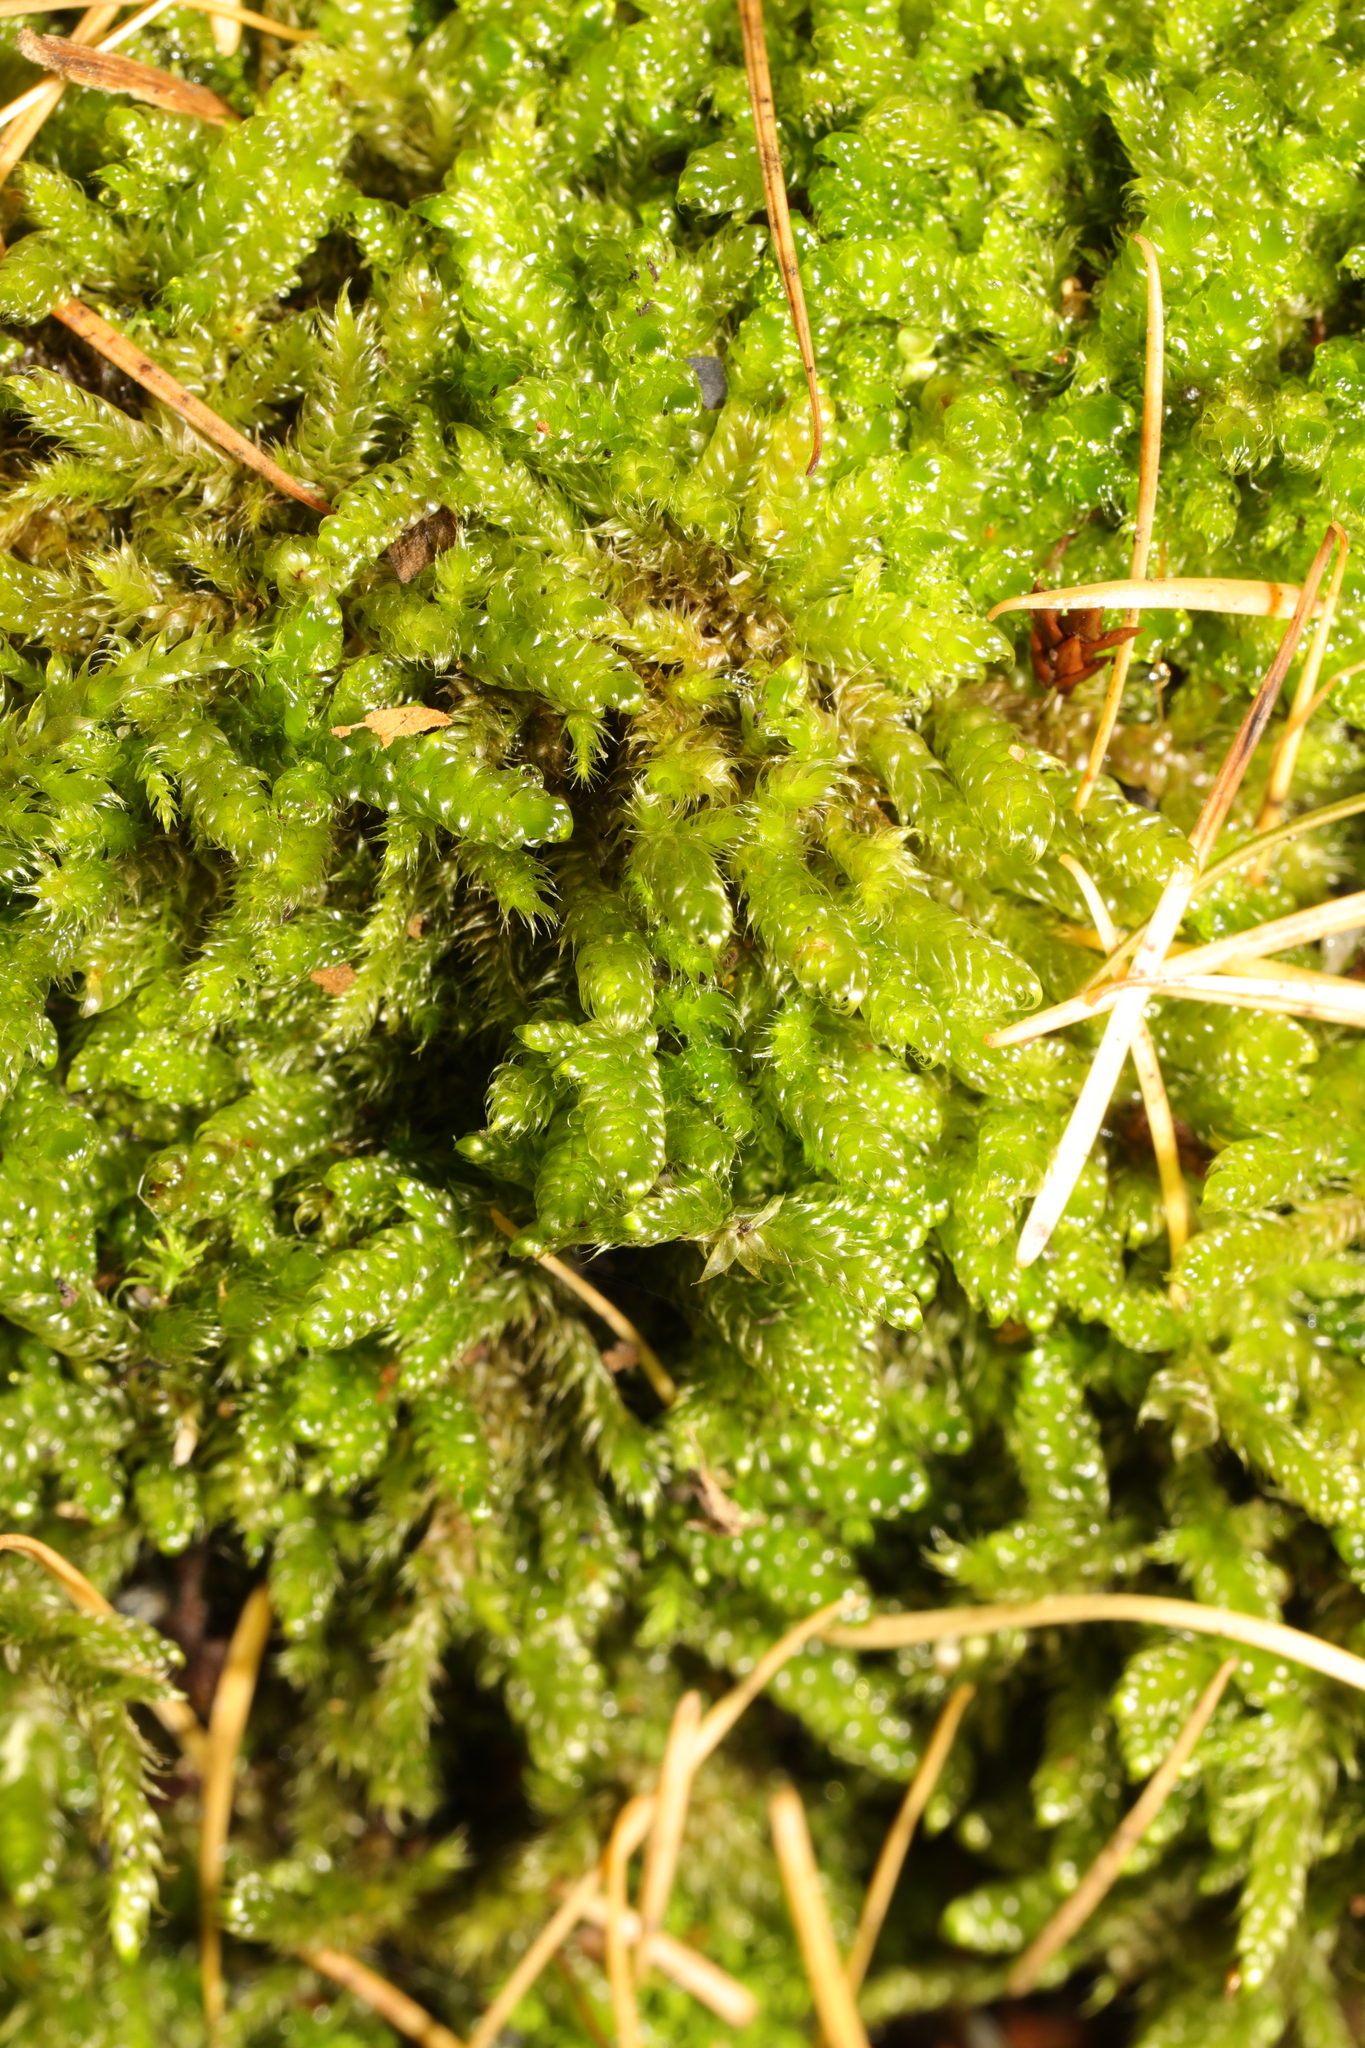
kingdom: Plantae
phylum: Bryophyta
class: Bryopsida
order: Hypnales
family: Hypnaceae
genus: Hypnum
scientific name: Hypnum cupressiforme
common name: Cypress-leaved plait-moss
